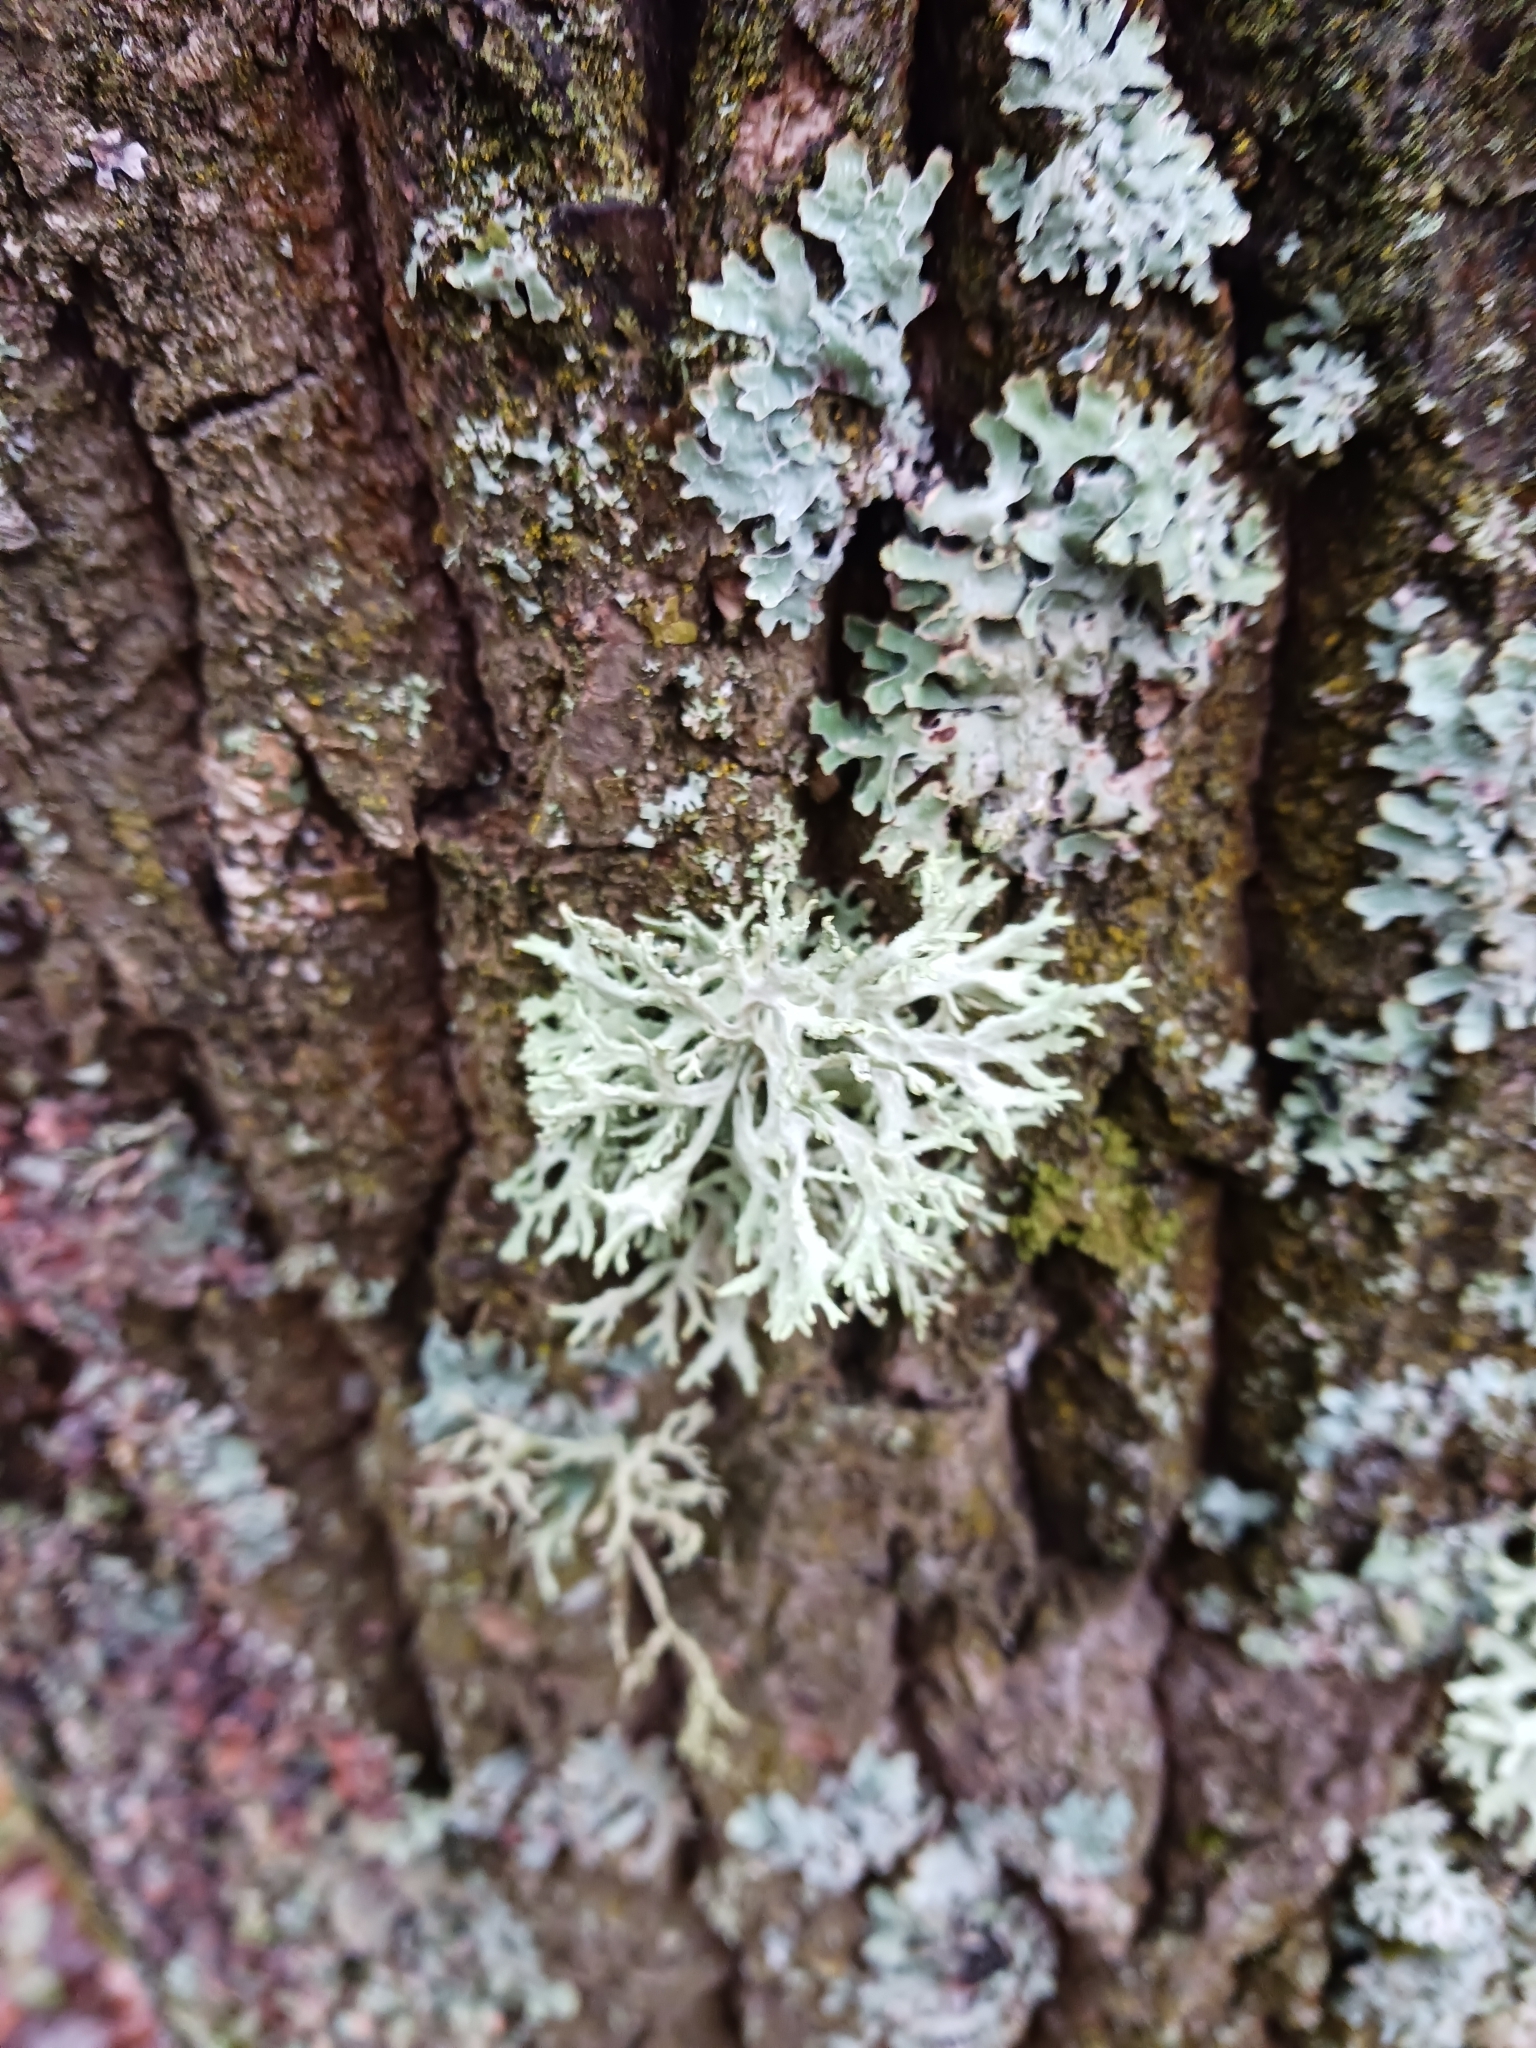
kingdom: Fungi
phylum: Ascomycota
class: Lecanoromycetes
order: Lecanorales
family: Parmeliaceae
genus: Evernia
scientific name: Evernia prunastri
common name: Oak moss
